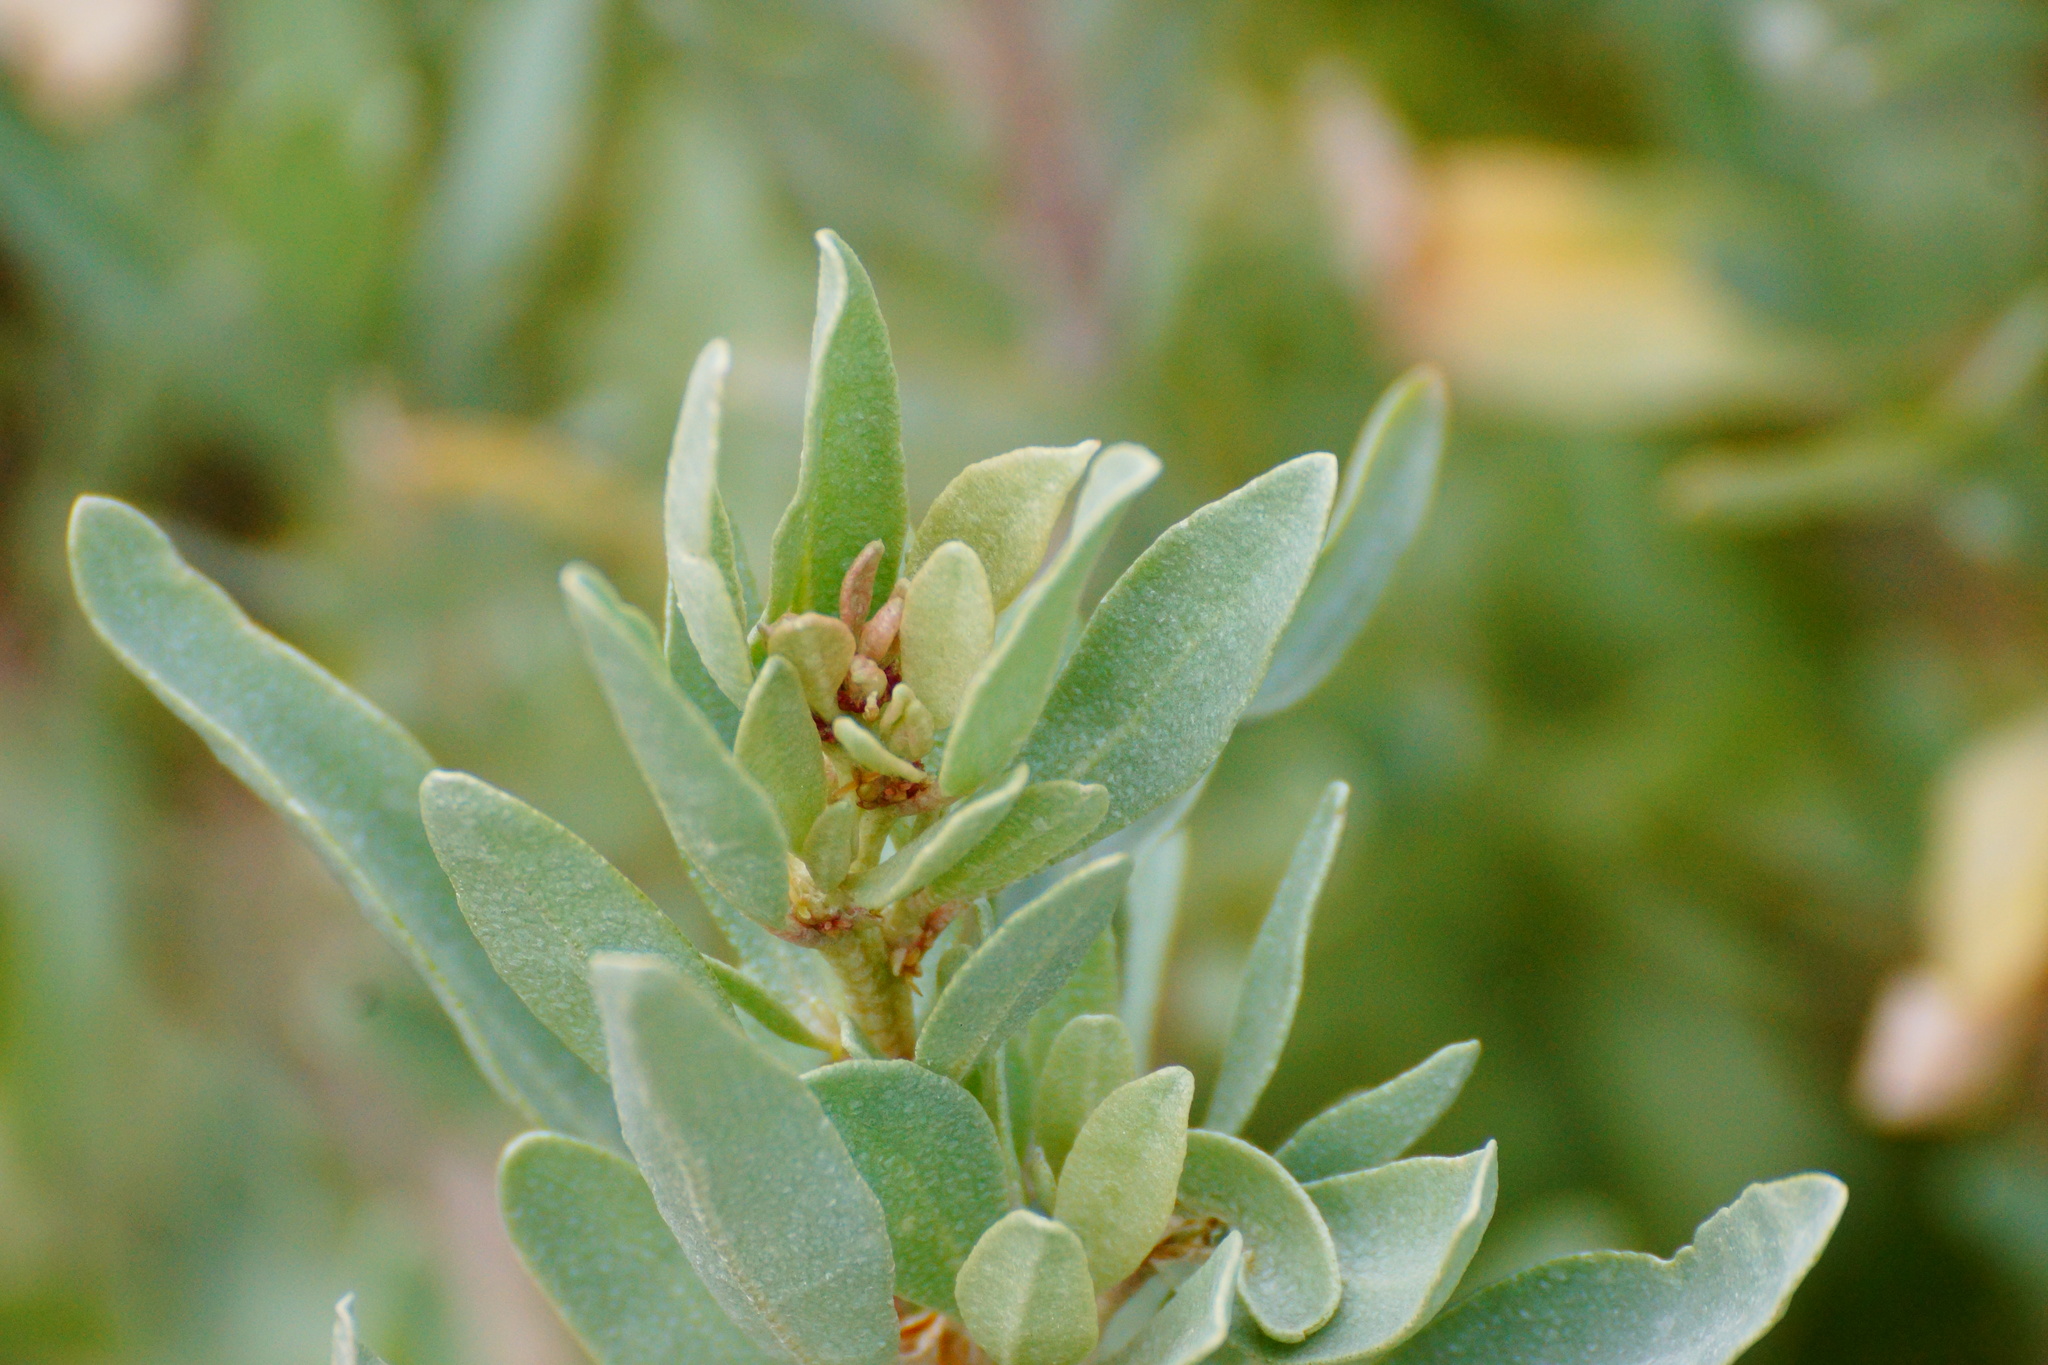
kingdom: Plantae
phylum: Tracheophyta
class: Magnoliopsida
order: Caryophyllales
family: Amaranthaceae
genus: Atriplex
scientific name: Atriplex cinerea
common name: Grey saltbush
